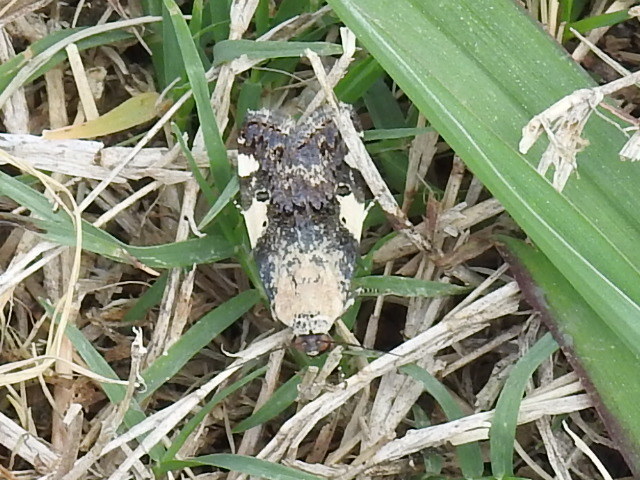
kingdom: Animalia
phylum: Arthropoda
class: Insecta
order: Lepidoptera
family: Noctuidae
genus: Acontia
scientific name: Acontia aprica
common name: Nun
